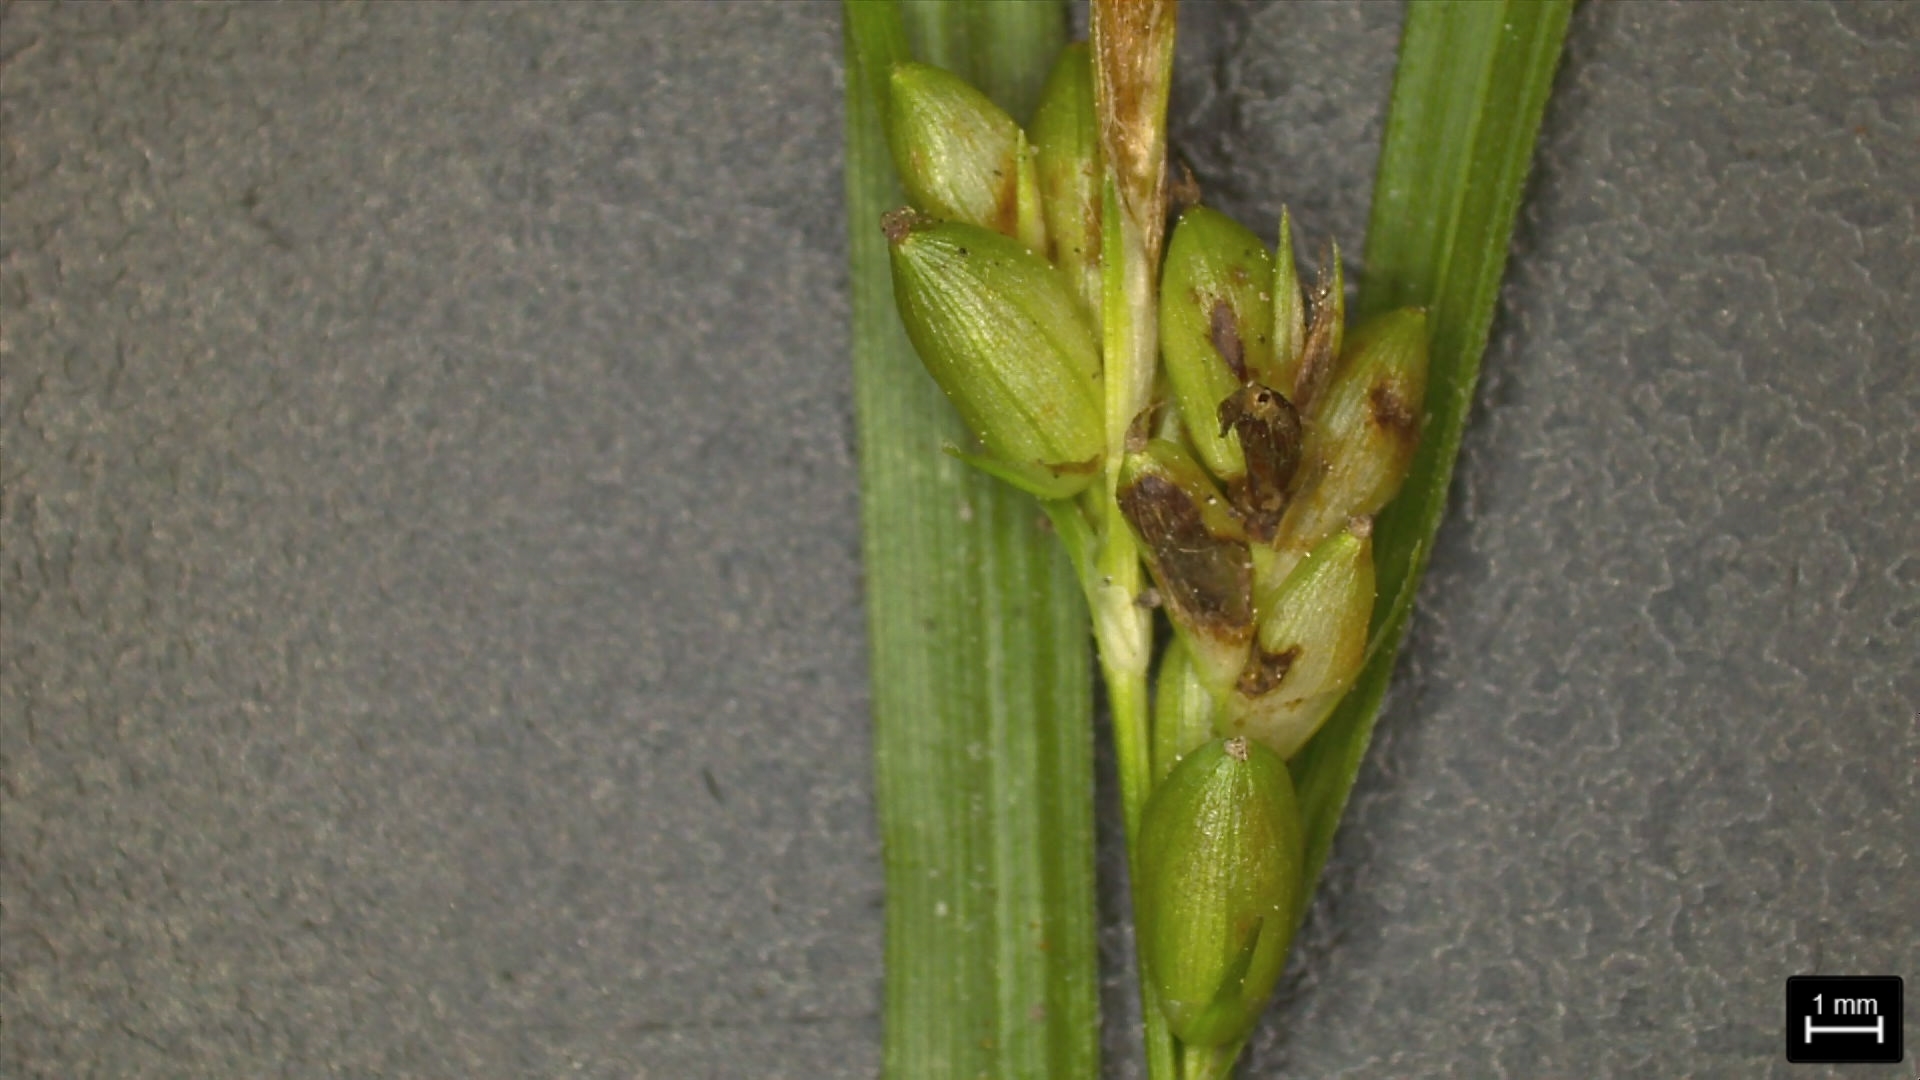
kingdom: Plantae
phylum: Tracheophyta
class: Liliopsida
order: Poales
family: Cyperaceae
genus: Carex
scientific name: Carex corrugata
